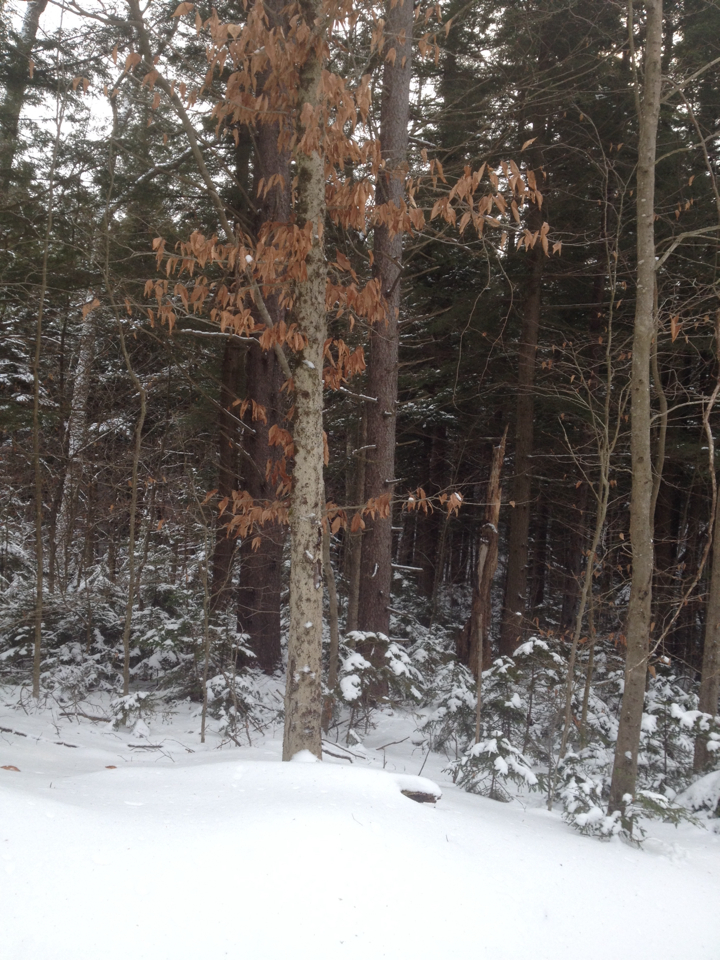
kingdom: Plantae
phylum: Tracheophyta
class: Magnoliopsida
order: Fagales
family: Fagaceae
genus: Fagus
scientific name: Fagus grandifolia
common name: American beech
